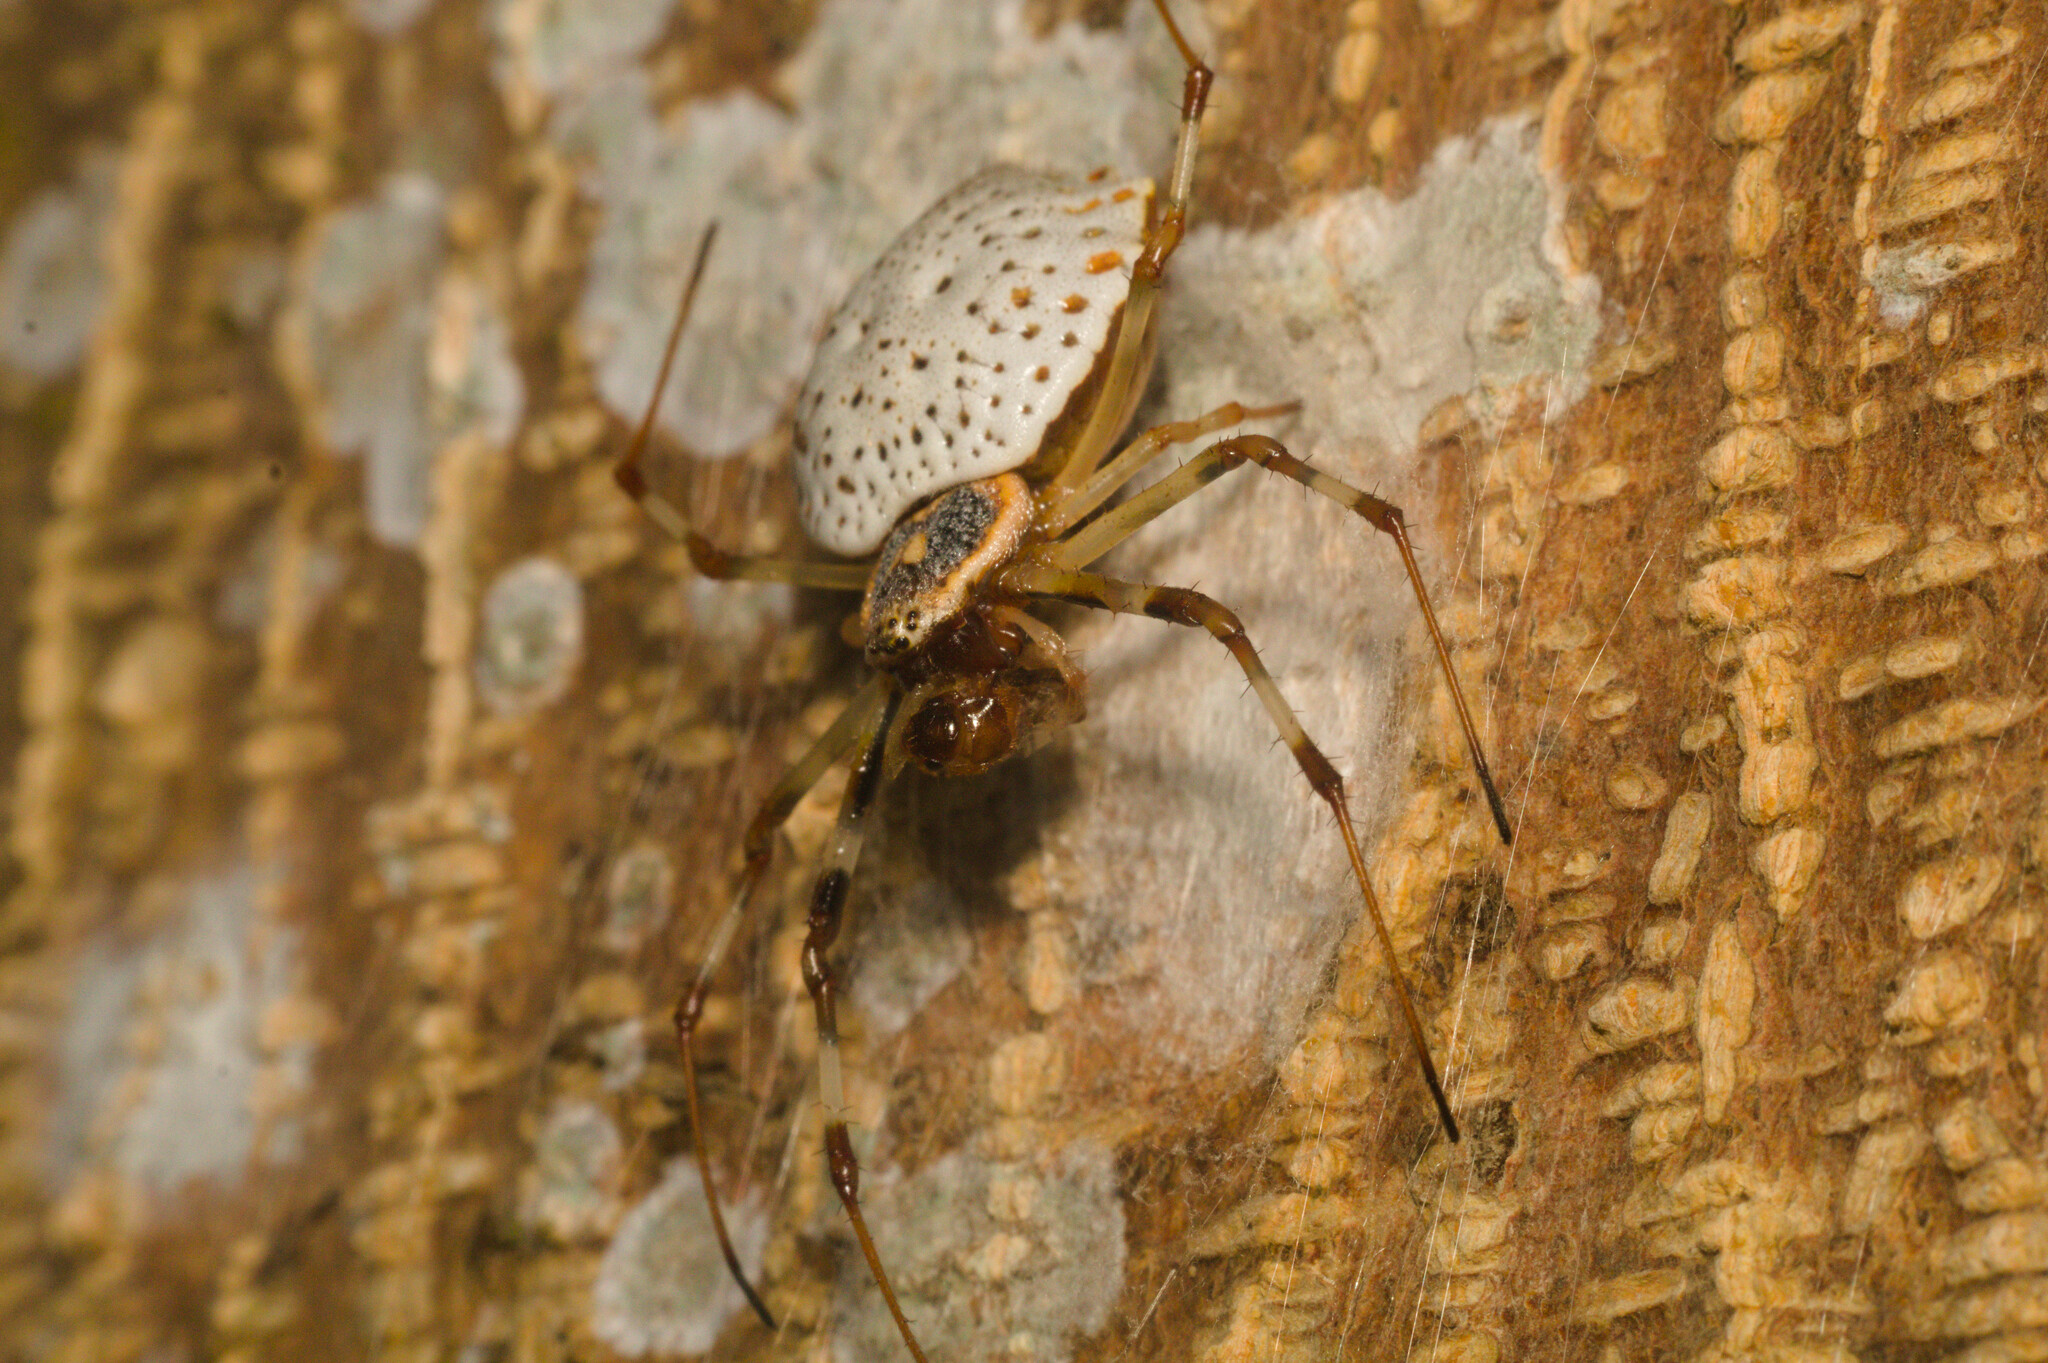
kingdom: Animalia
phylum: Arthropoda
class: Arachnida
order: Araneae
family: Araneidae
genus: Herennia
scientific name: Herennia multipuncta
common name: Spotted coin spider
